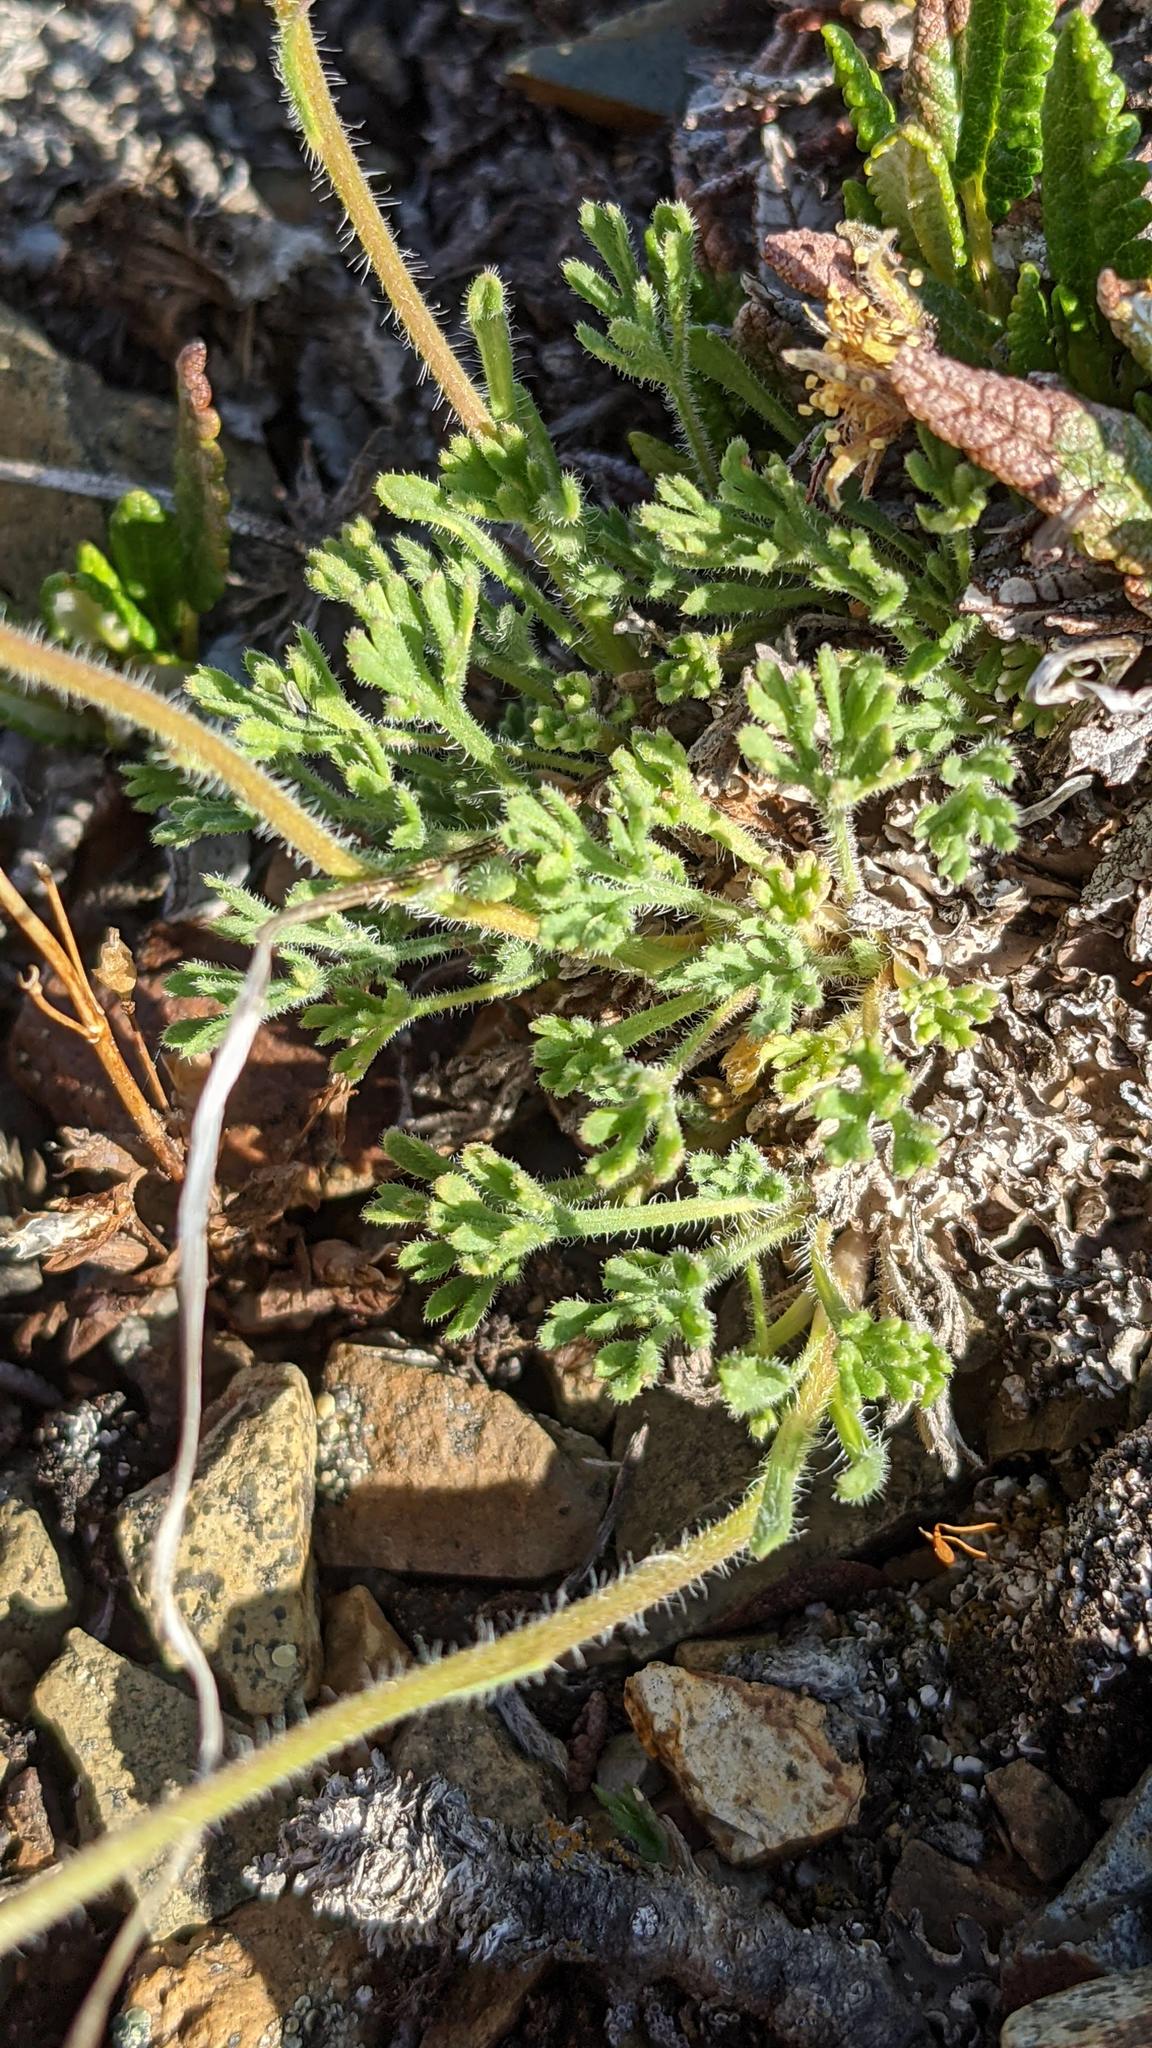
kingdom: Plantae
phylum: Tracheophyta
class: Magnoliopsida
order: Asterales
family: Asteraceae
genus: Erigeron
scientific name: Erigeron compositus
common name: Dwarf mountain fleabane
